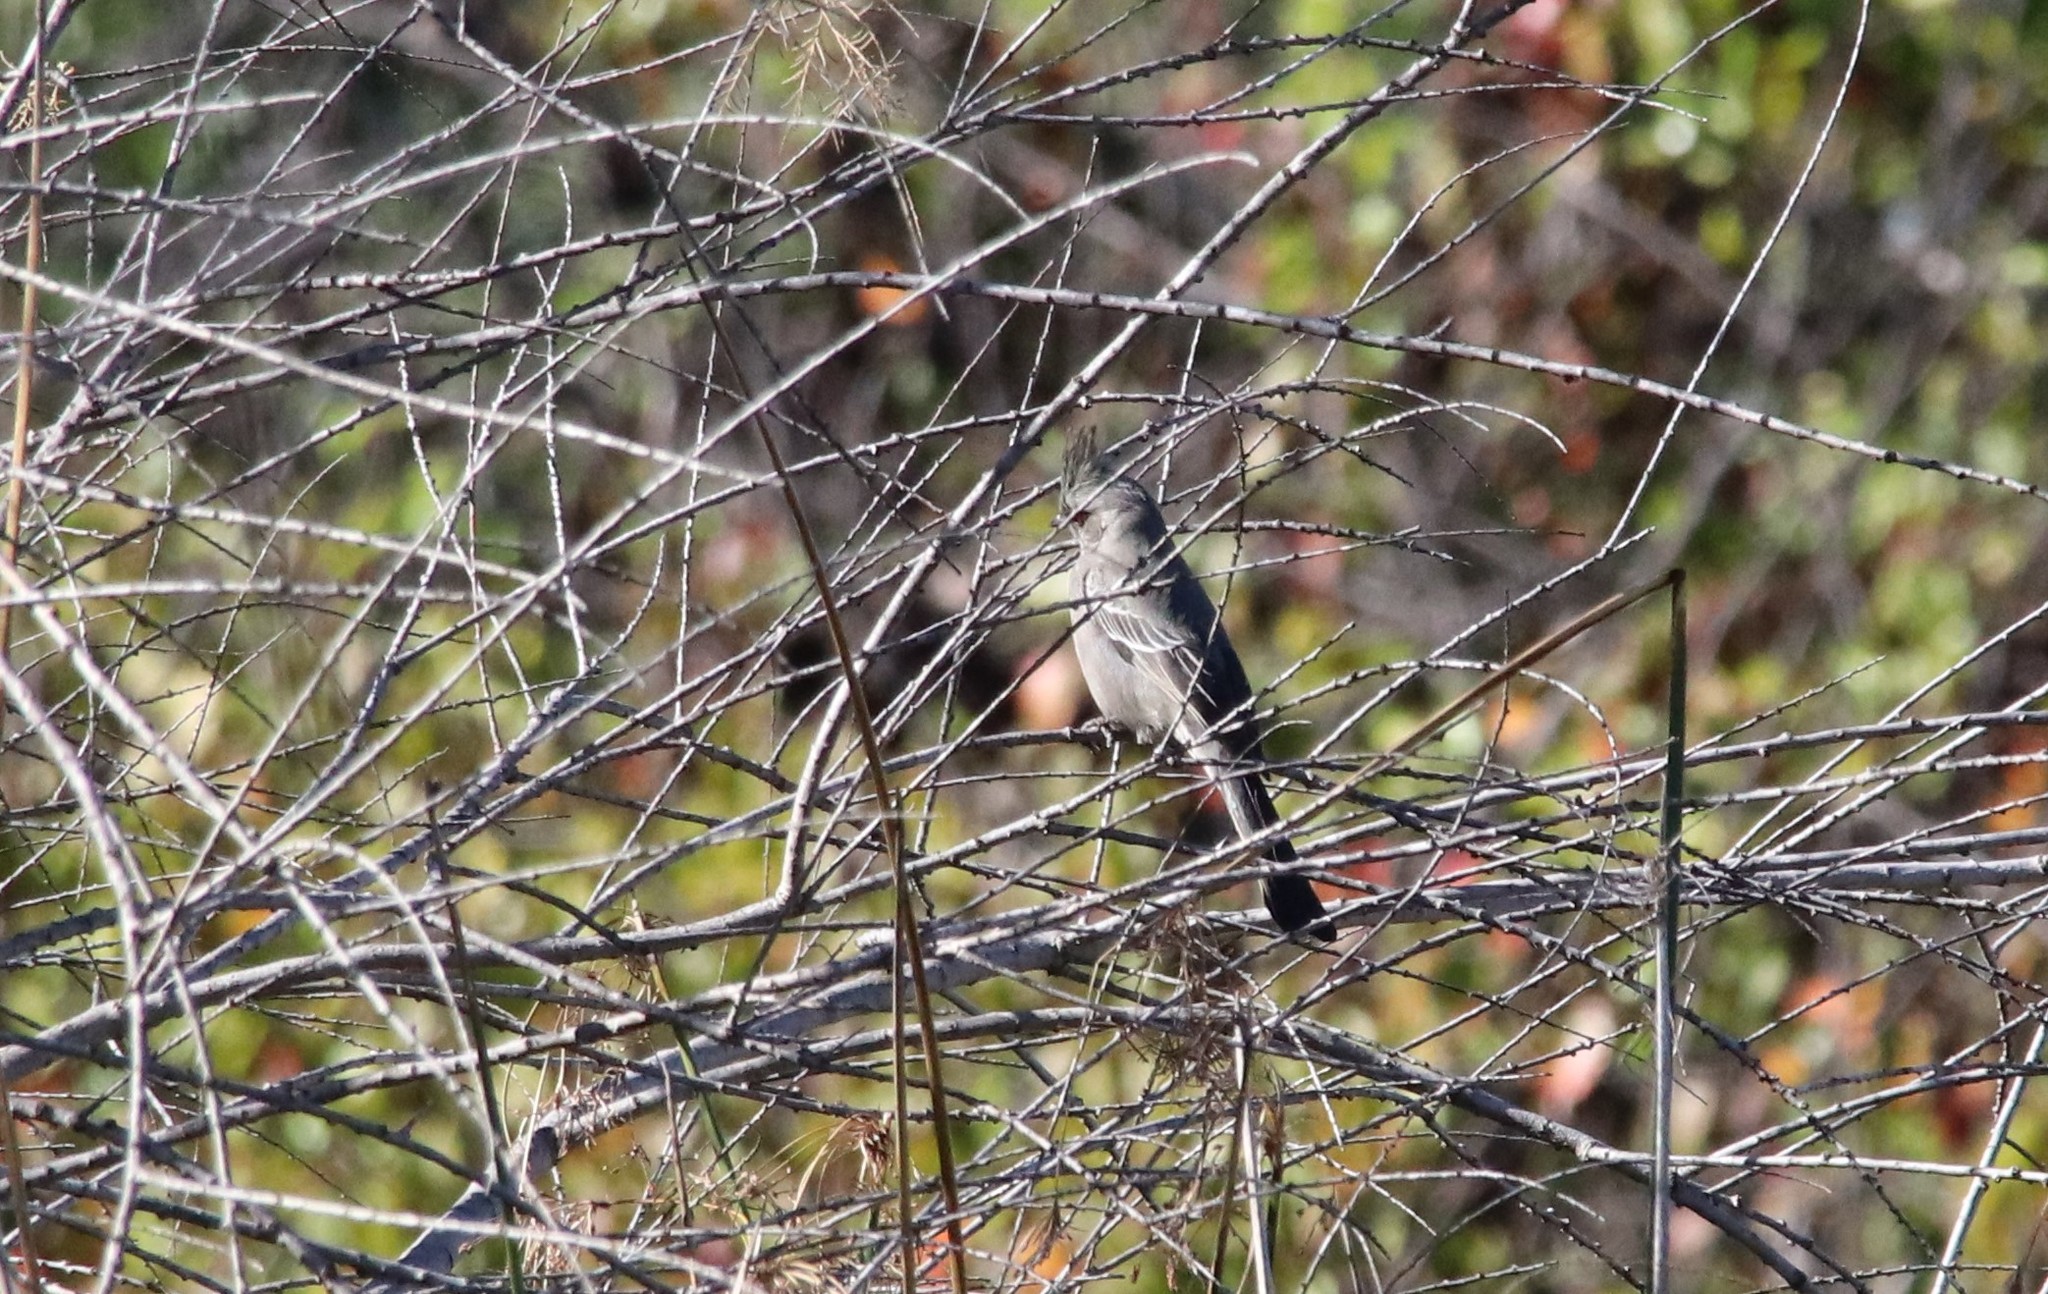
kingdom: Animalia
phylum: Chordata
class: Aves
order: Passeriformes
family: Ptilogonatidae
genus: Phainopepla
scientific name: Phainopepla nitens
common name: Phainopepla
